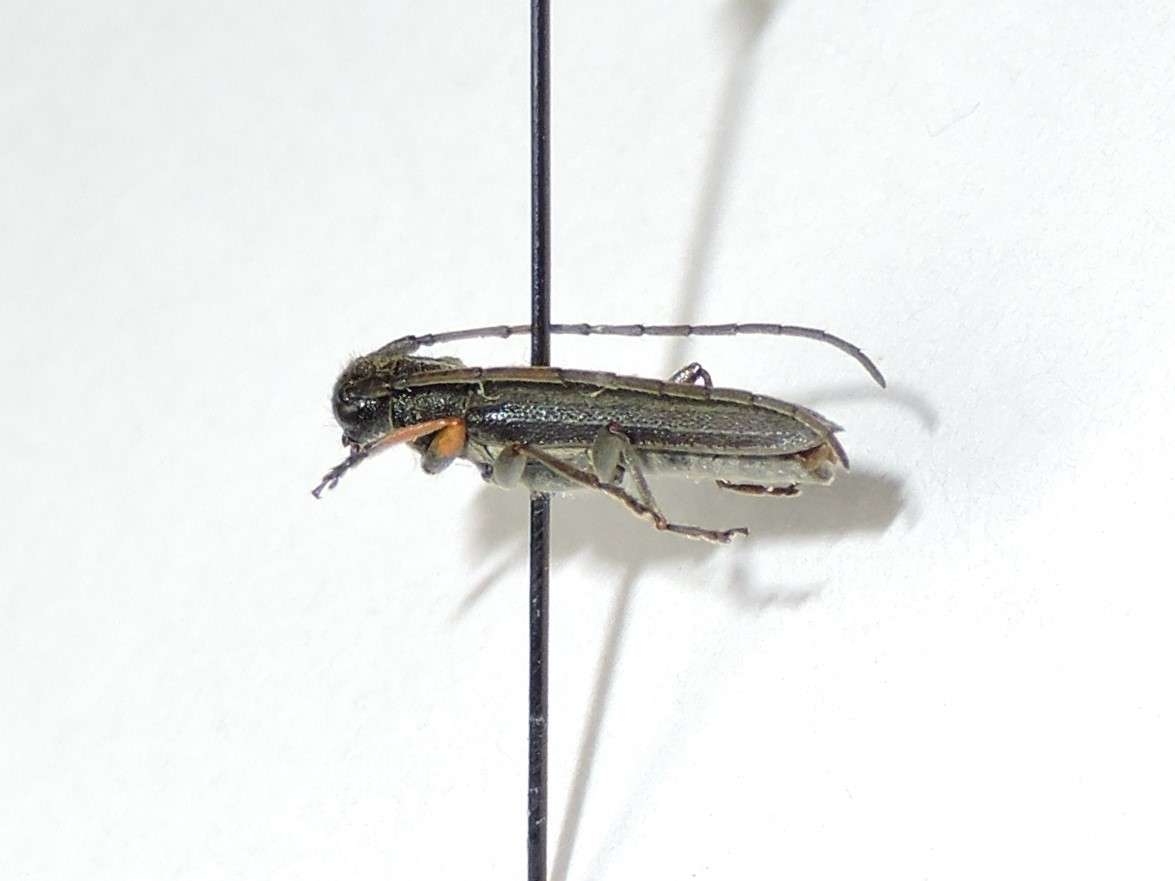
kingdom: Animalia
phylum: Arthropoda
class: Insecta
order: Coleoptera
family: Cerambycidae
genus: Phytoecia
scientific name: Phytoecia cylindrica
